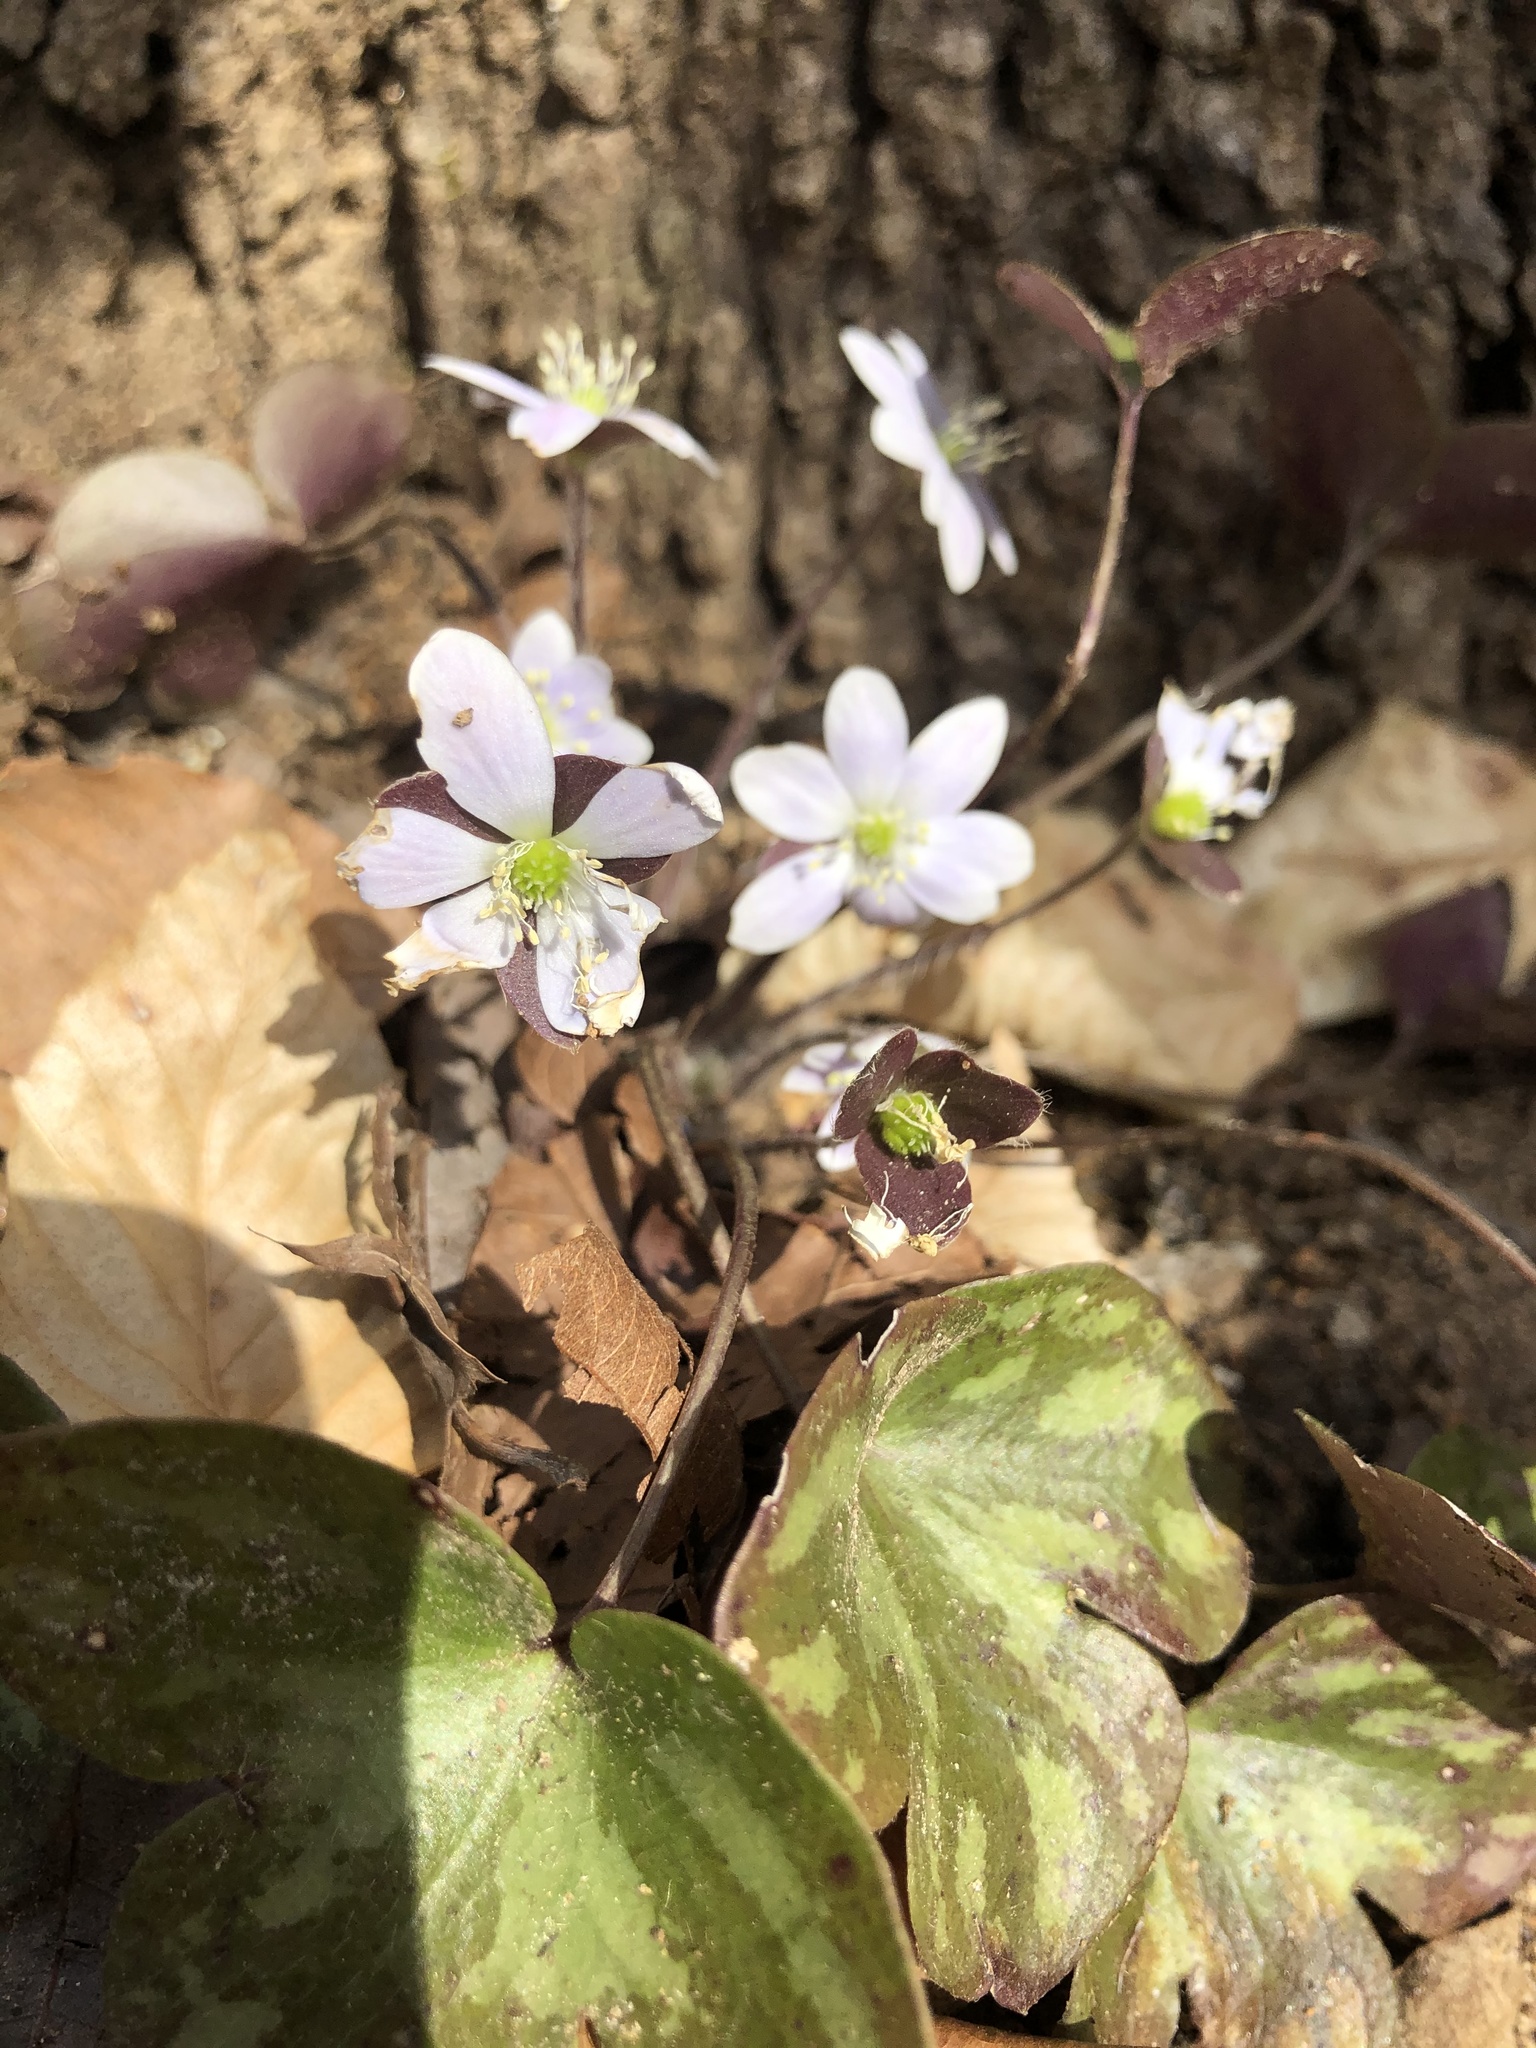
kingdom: Plantae
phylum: Tracheophyta
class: Magnoliopsida
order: Ranunculales
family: Ranunculaceae
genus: Hepatica
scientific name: Hepatica americana
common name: American hepatica
